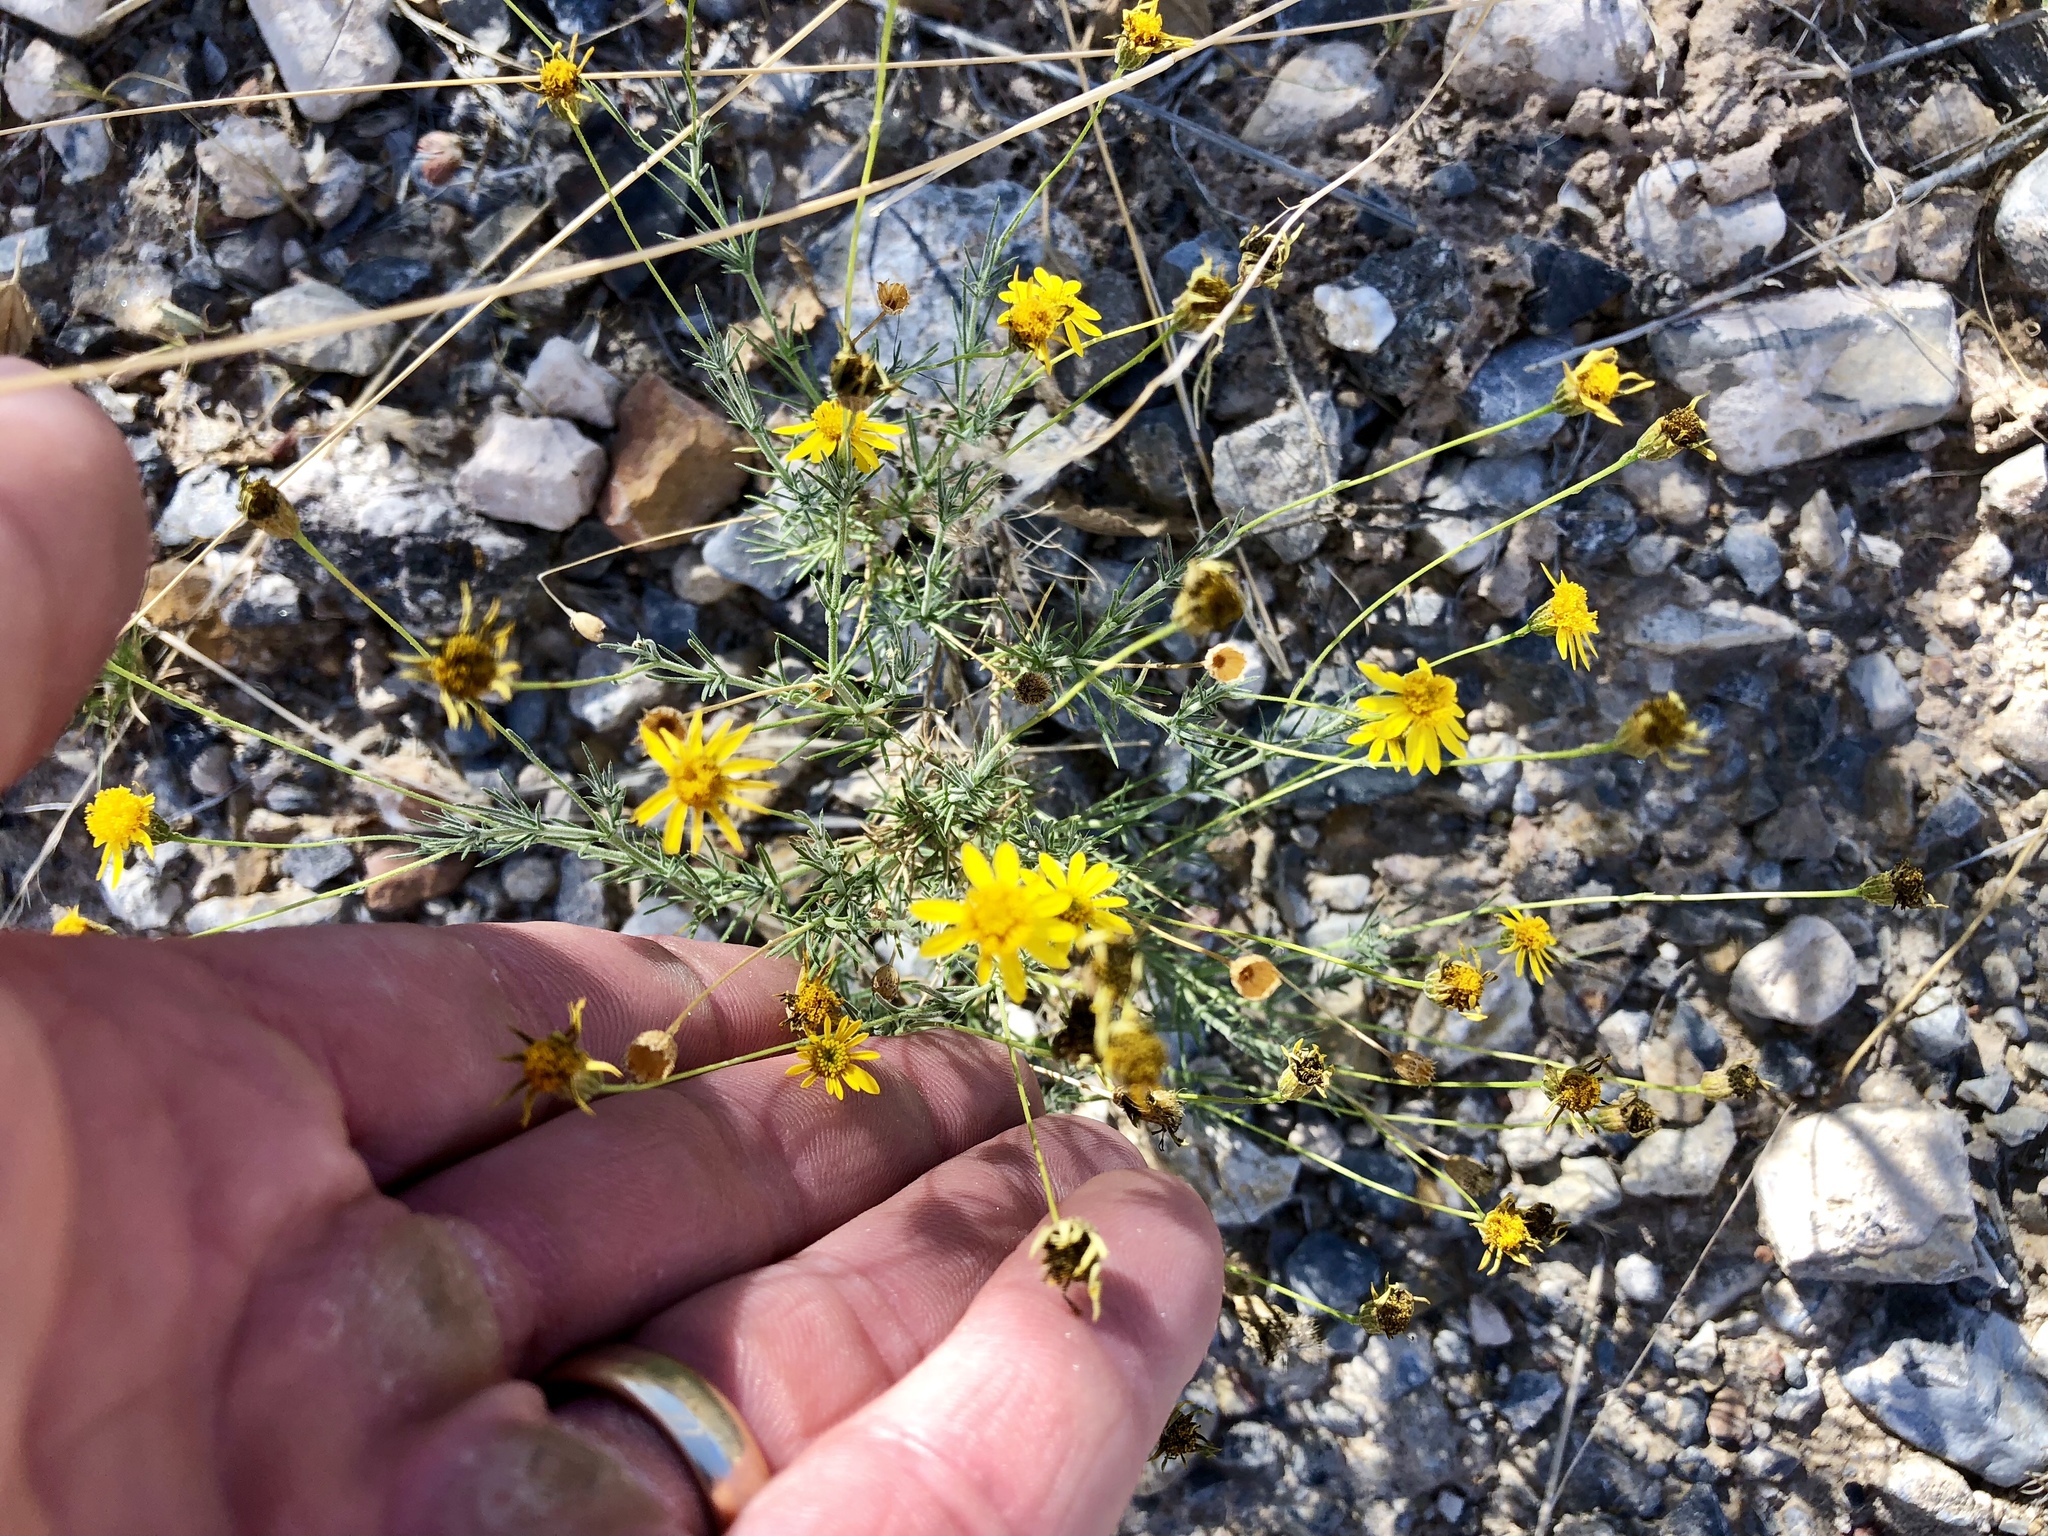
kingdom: Plantae
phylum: Tracheophyta
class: Magnoliopsida
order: Asterales
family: Asteraceae
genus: Thymophylla
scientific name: Thymophylla pentachaeta
